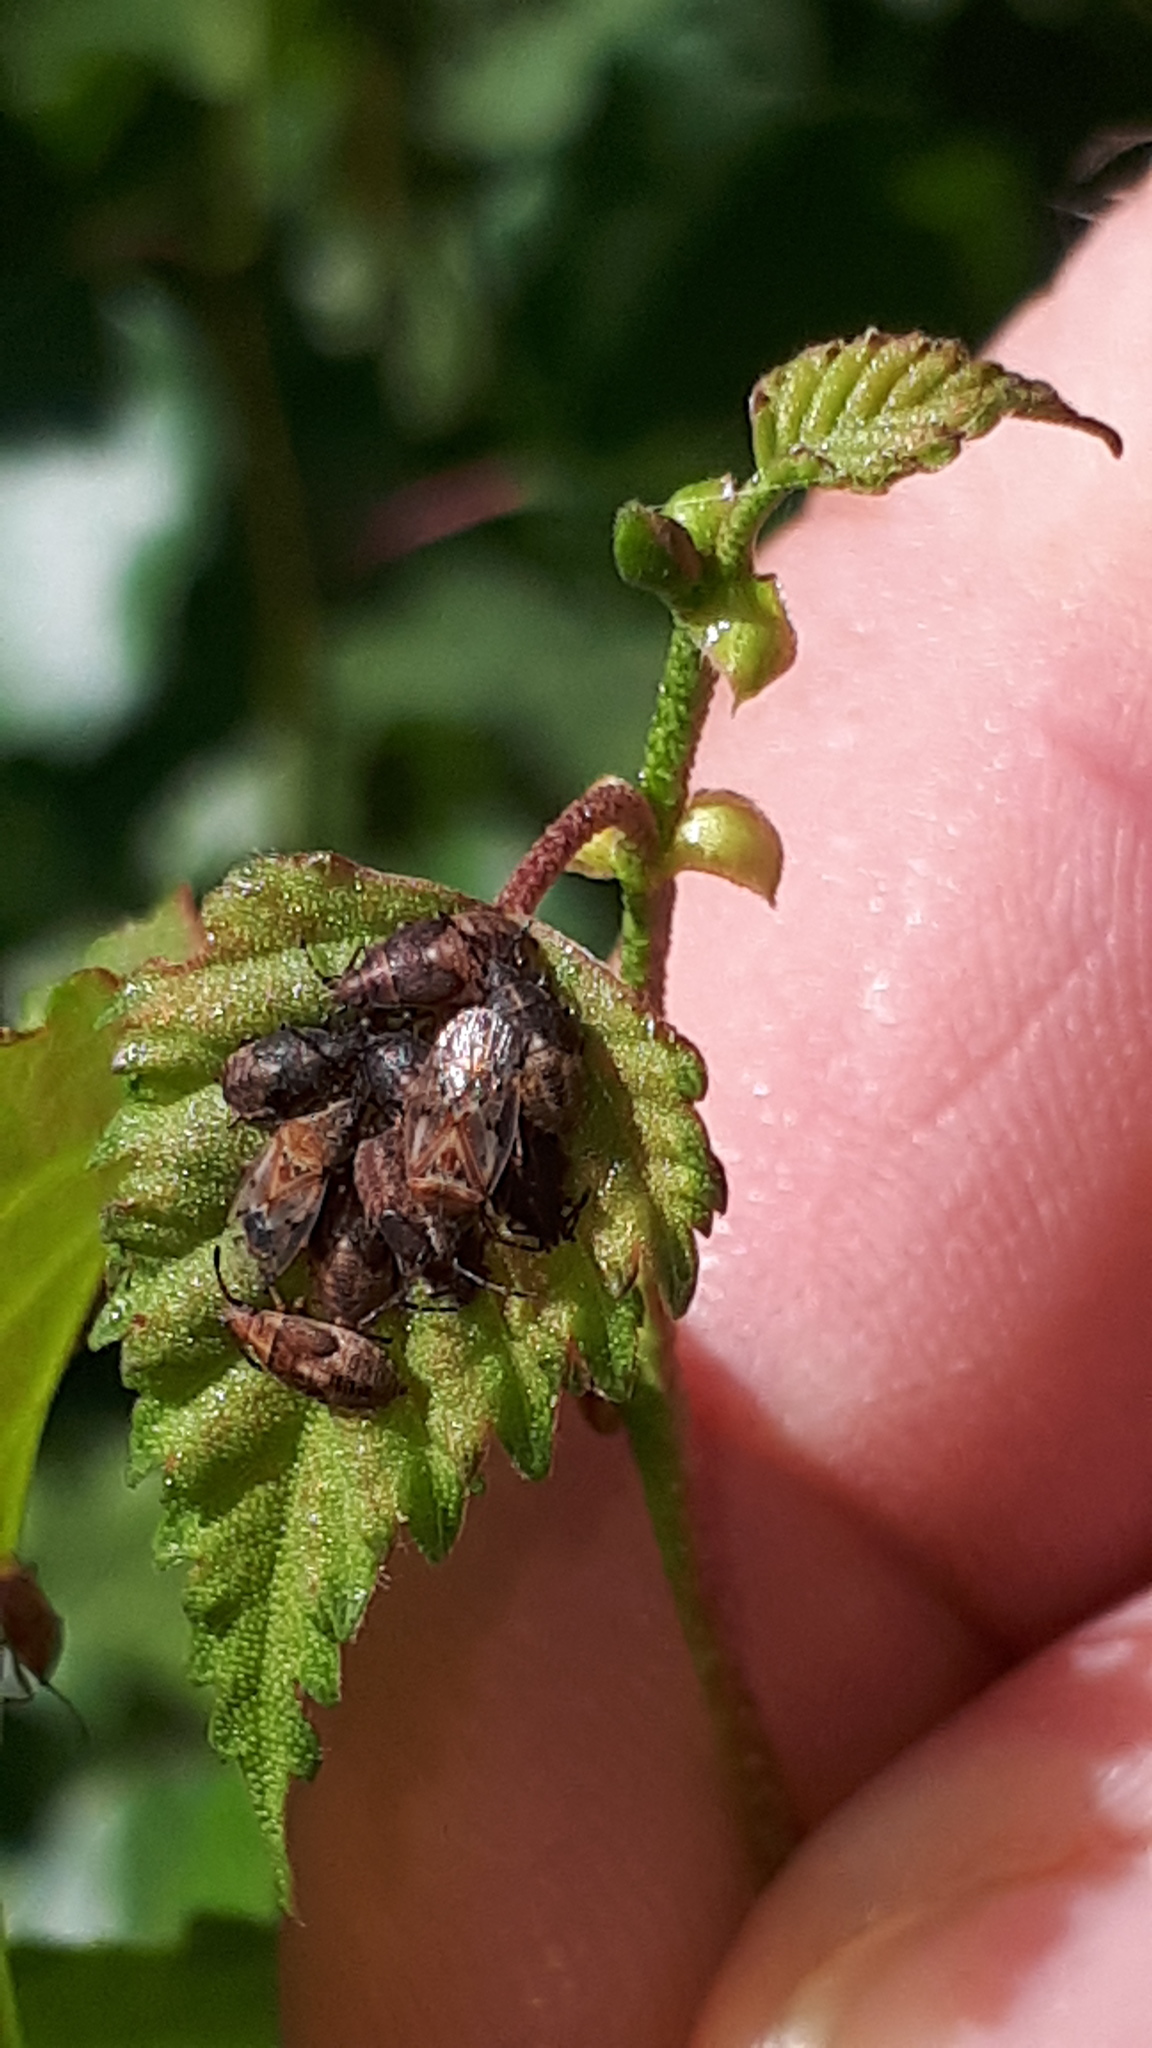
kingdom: Animalia
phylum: Arthropoda
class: Insecta
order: Hemiptera
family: Lygaeidae
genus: Kleidocerys
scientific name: Kleidocerys resedae
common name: Birch catkin bug
